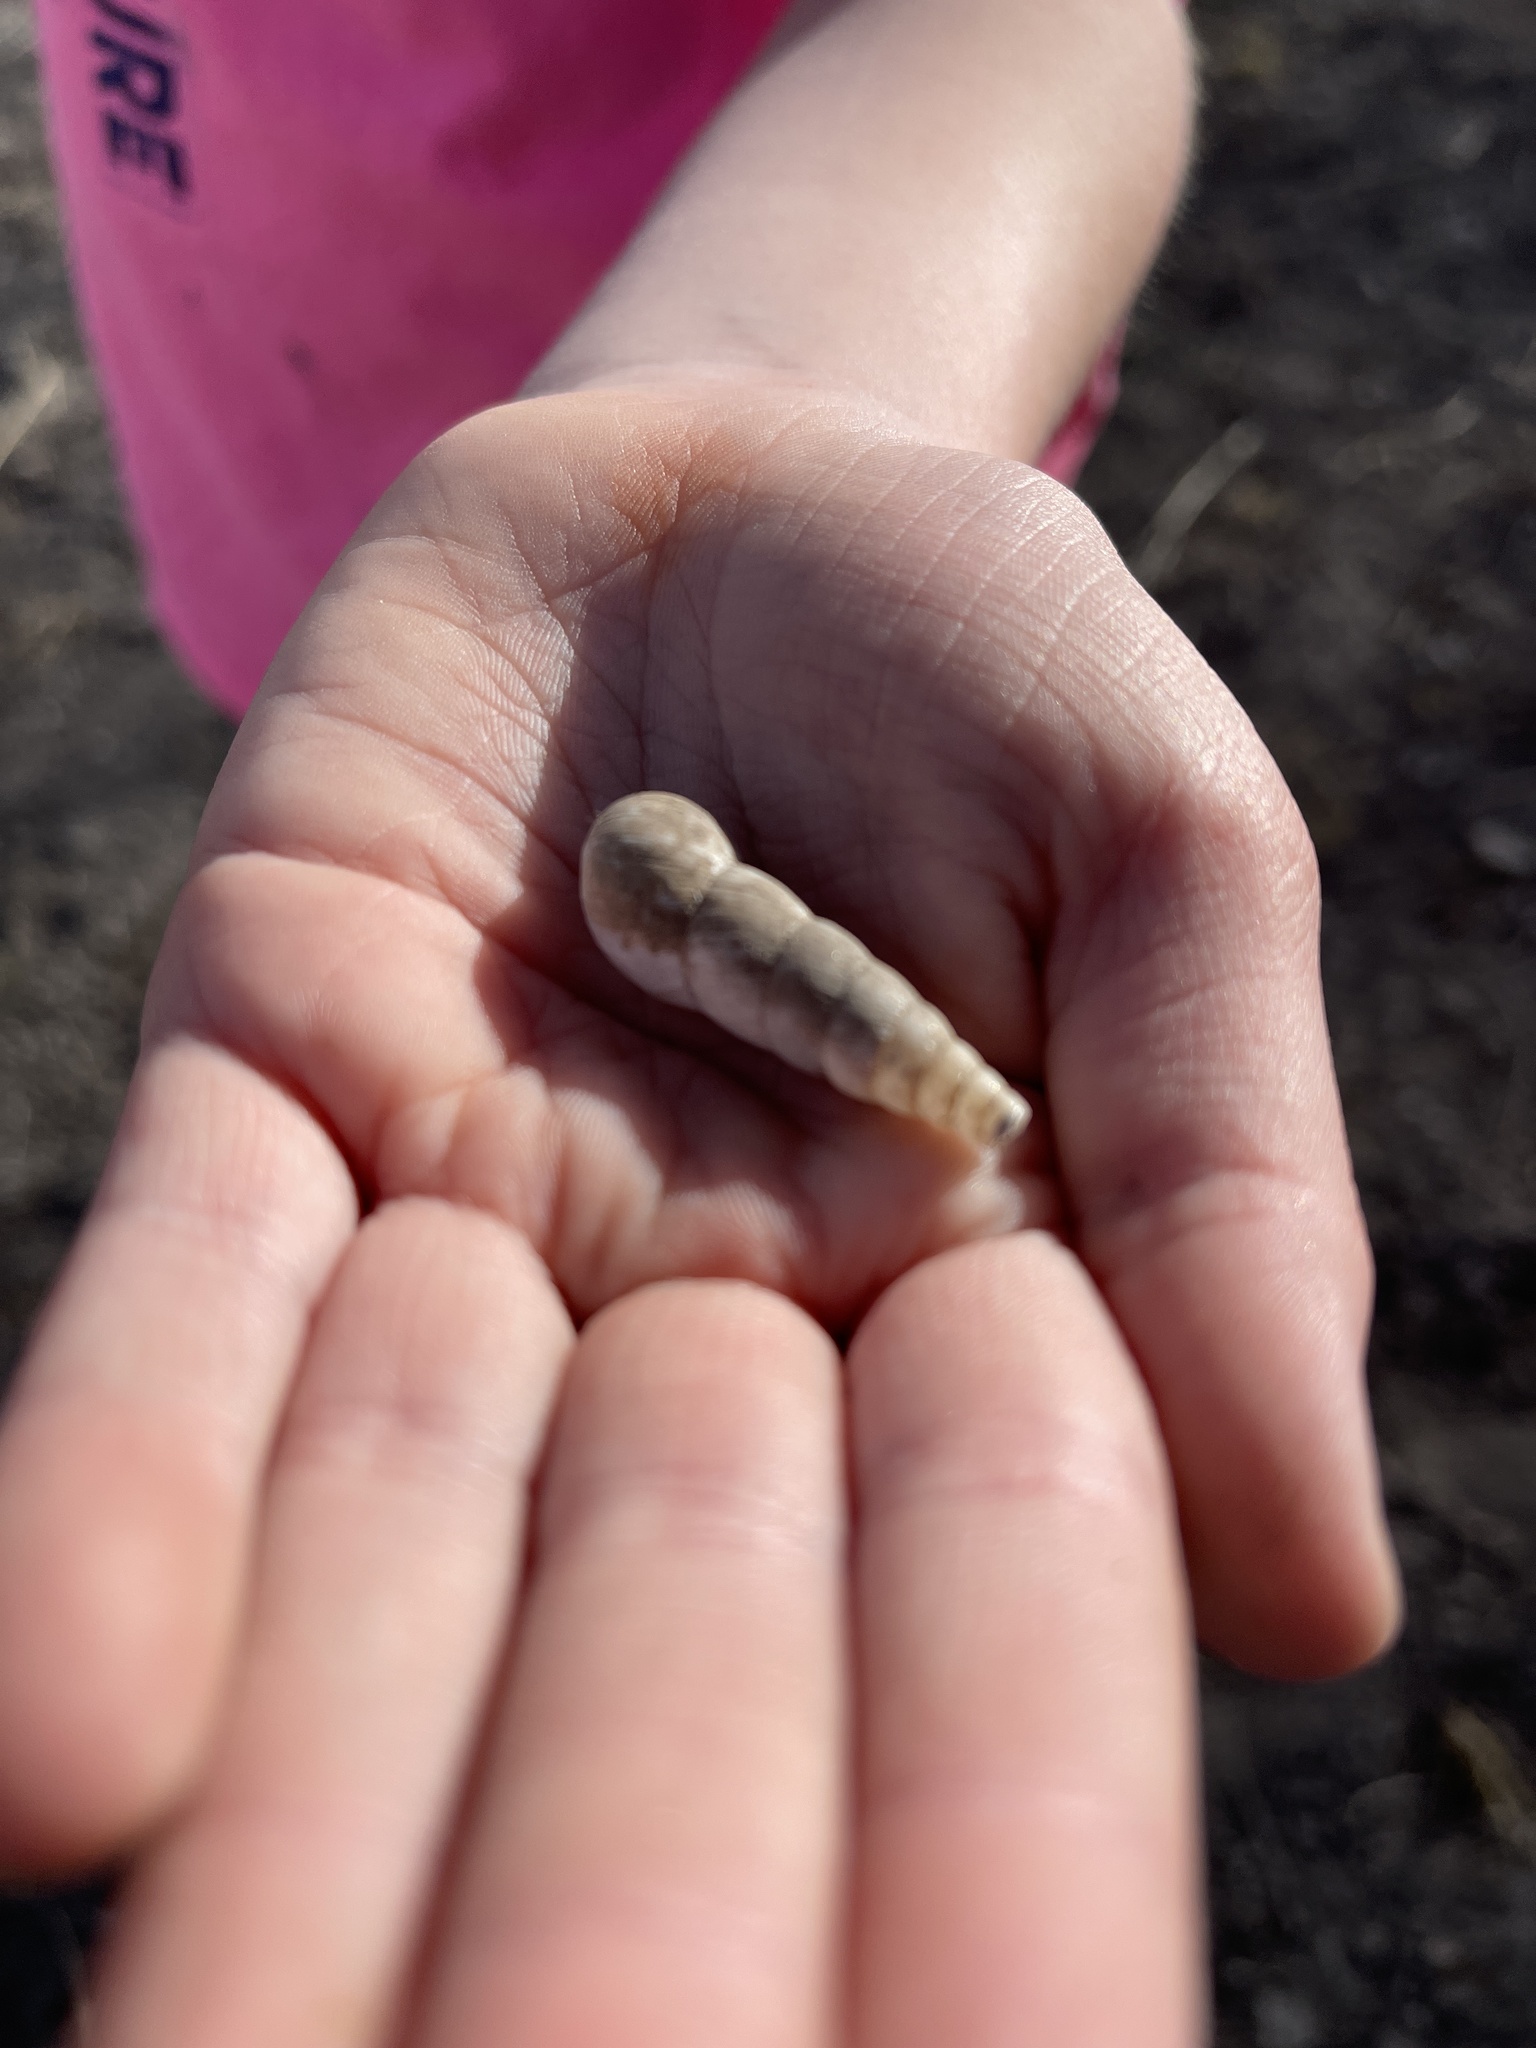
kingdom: Animalia
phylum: Mollusca
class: Gastropoda
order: Stylommatophora
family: Achatinidae
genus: Rumina
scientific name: Rumina decollata
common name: Decollate snail
